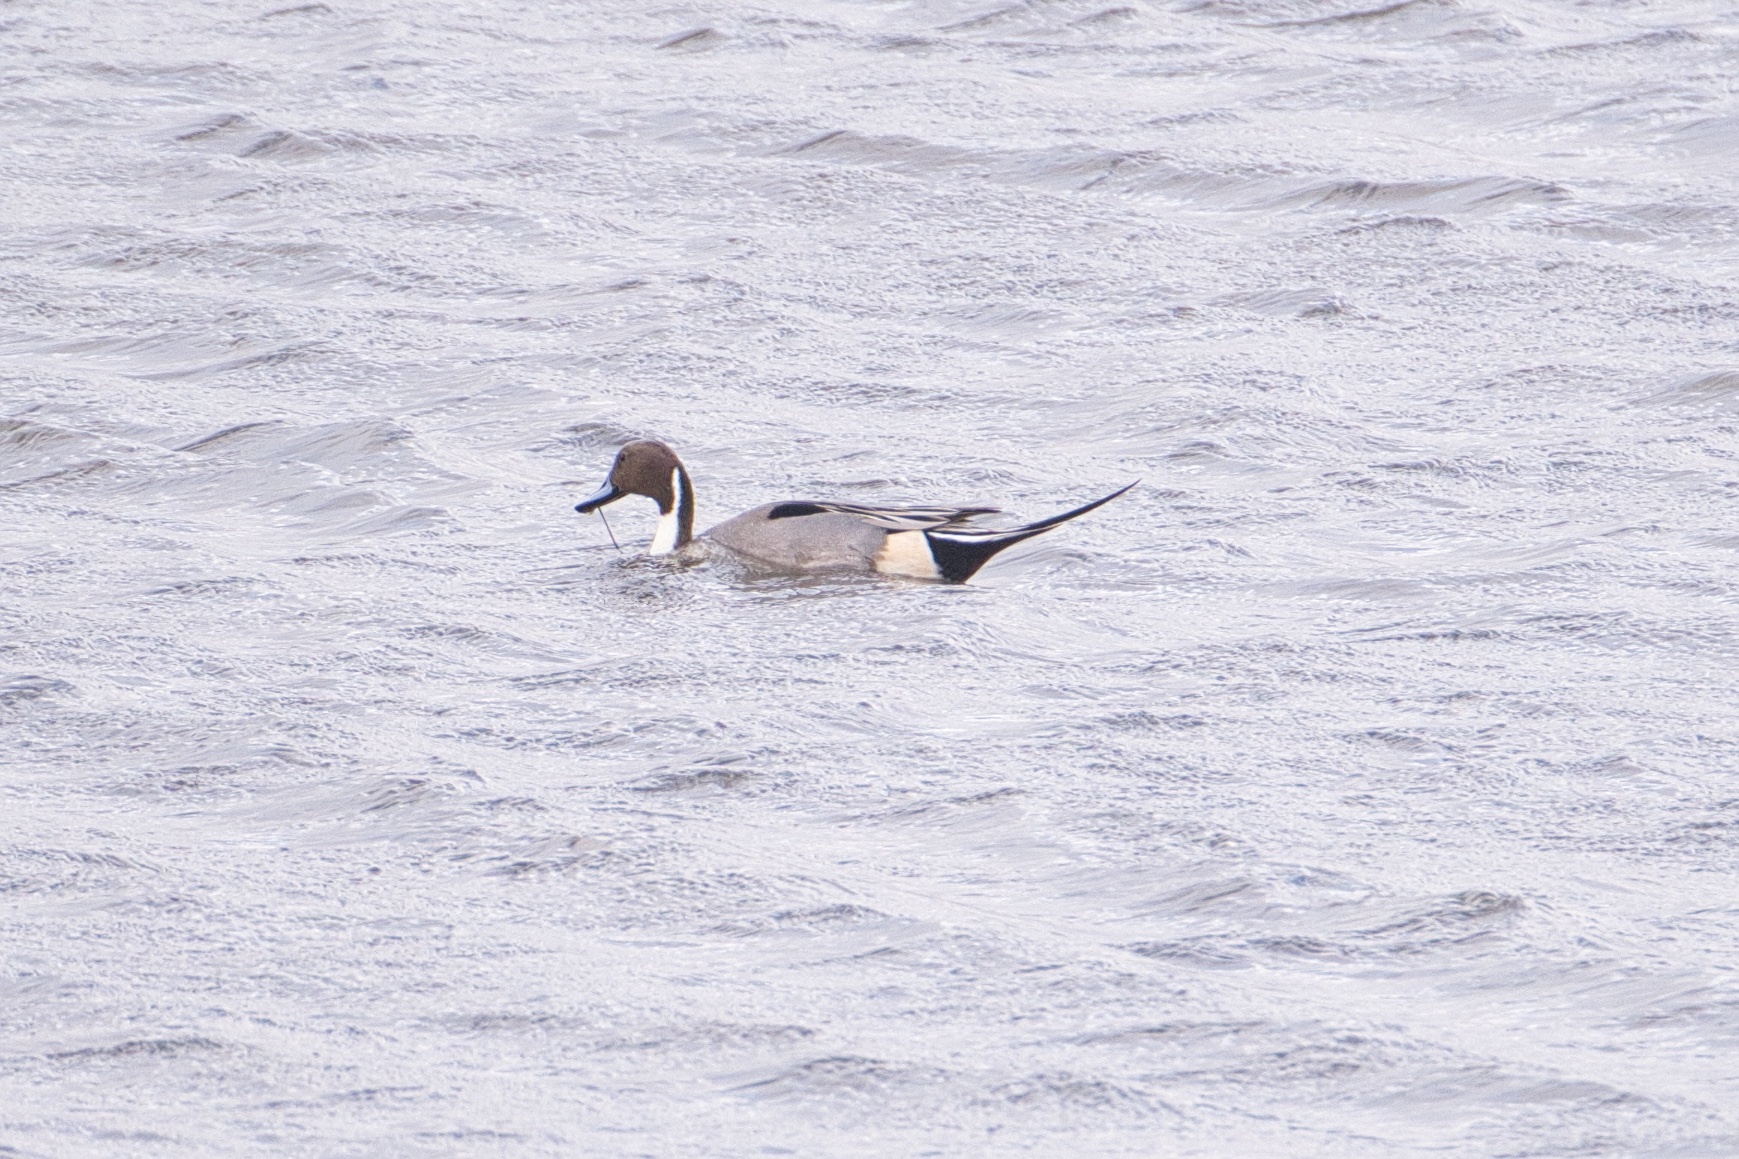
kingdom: Animalia
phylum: Chordata
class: Aves
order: Anseriformes
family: Anatidae
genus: Anas
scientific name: Anas acuta
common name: Northern pintail
